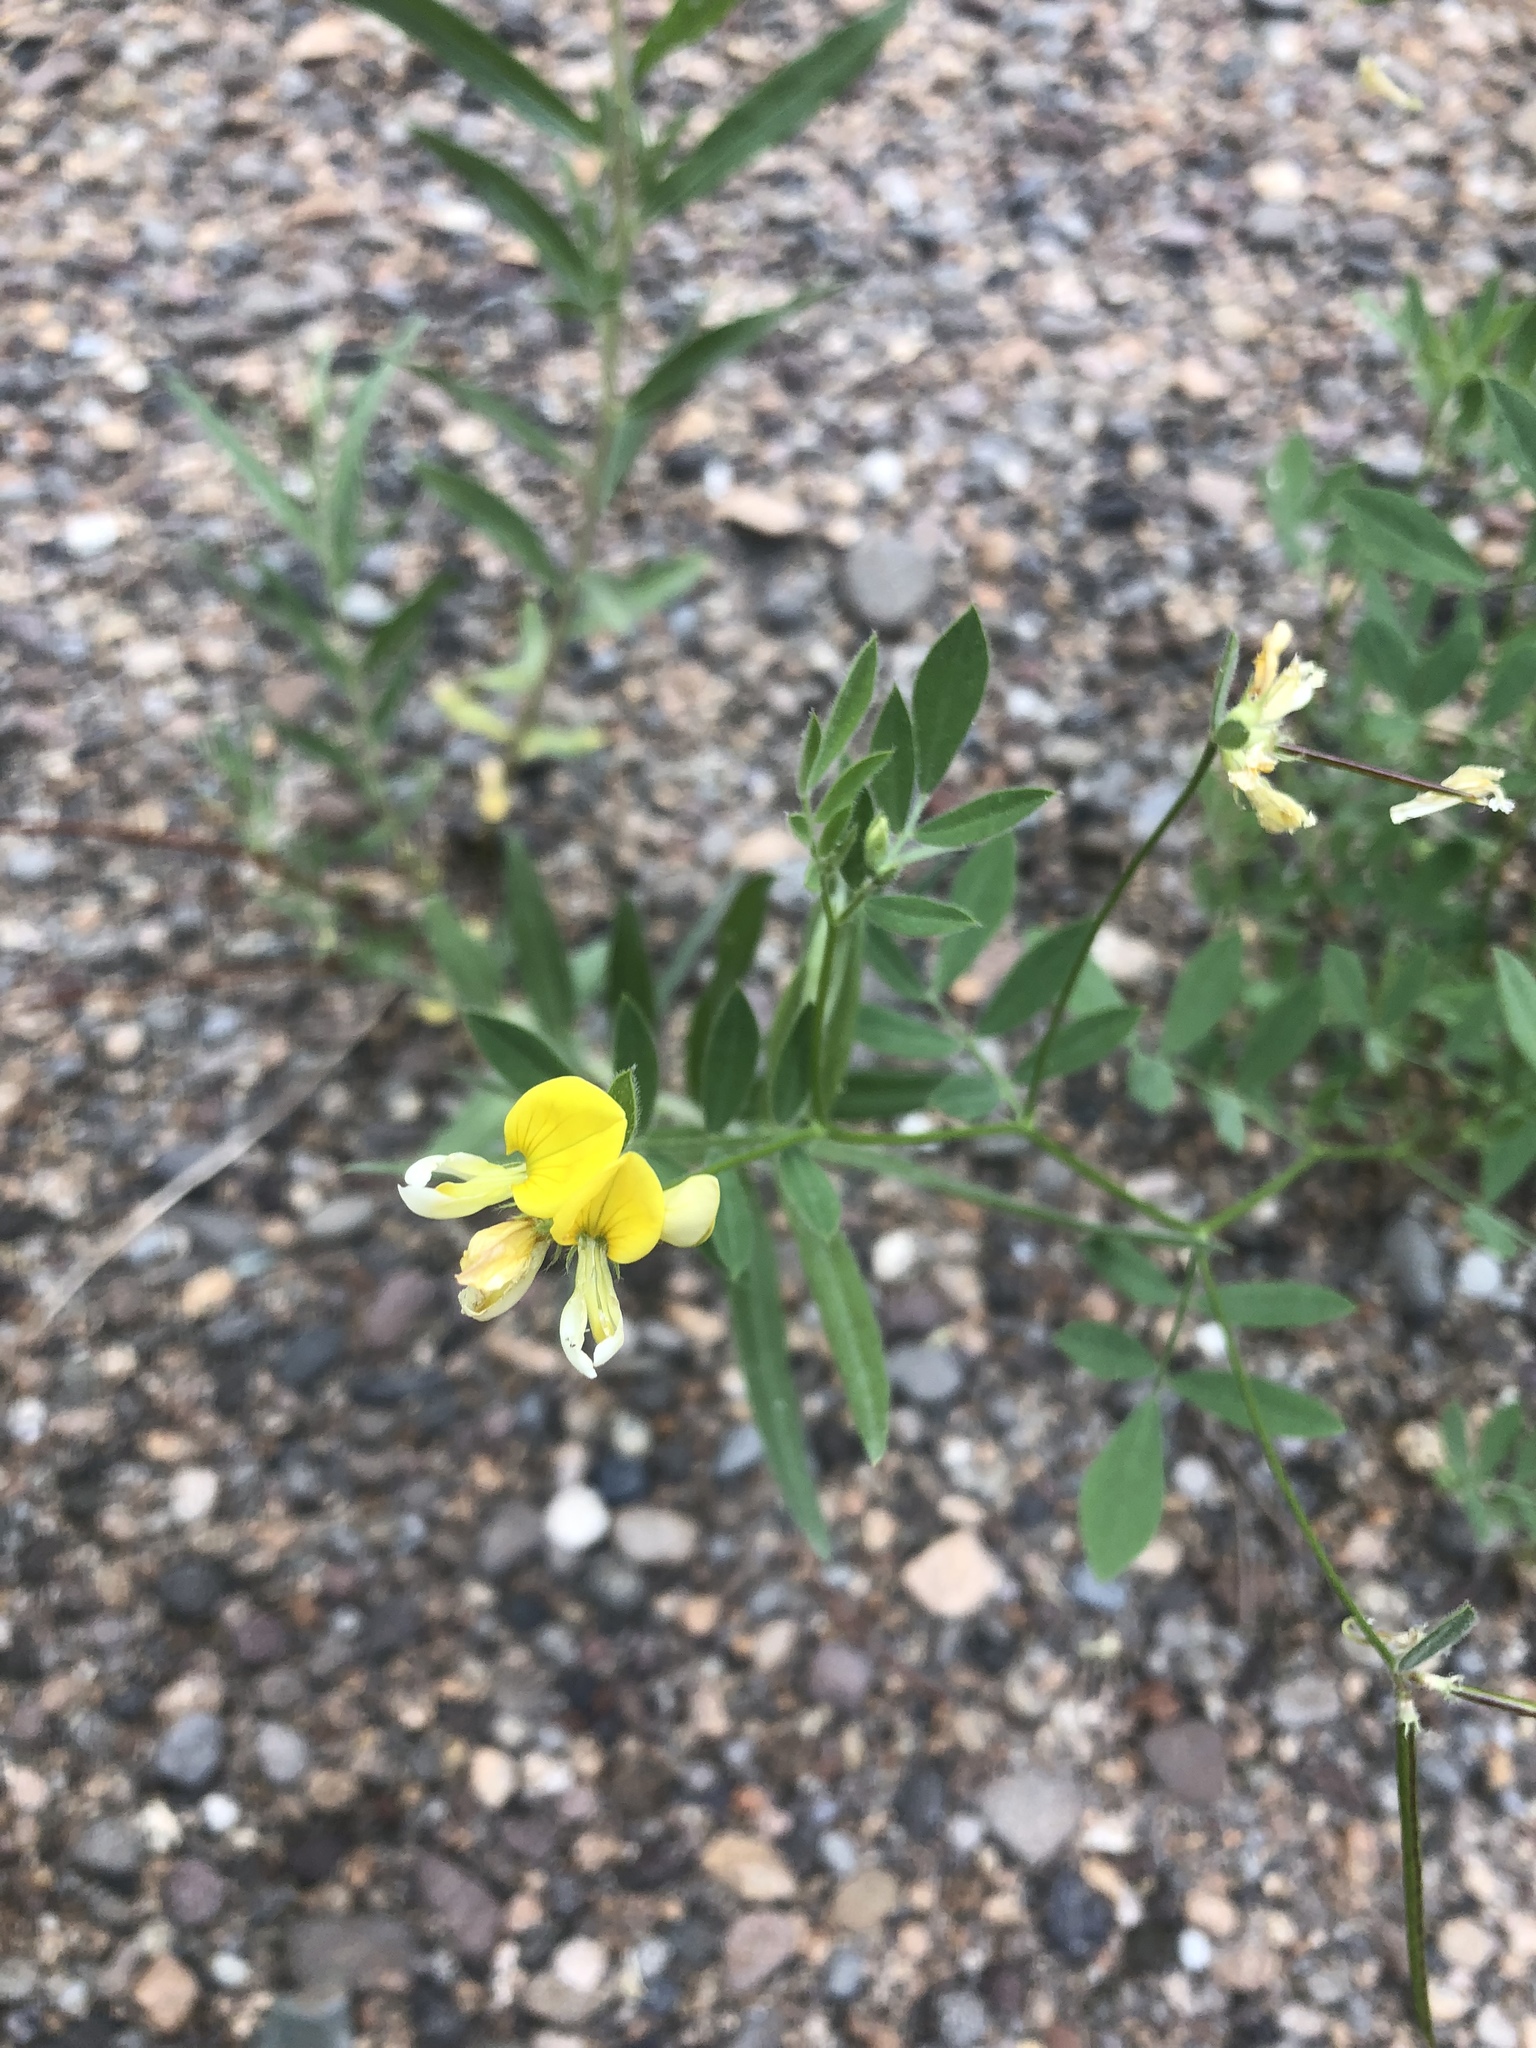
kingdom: Plantae
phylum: Tracheophyta
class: Magnoliopsida
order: Fabales
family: Fabaceae
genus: Hosackia
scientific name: Hosackia oblongifolia
